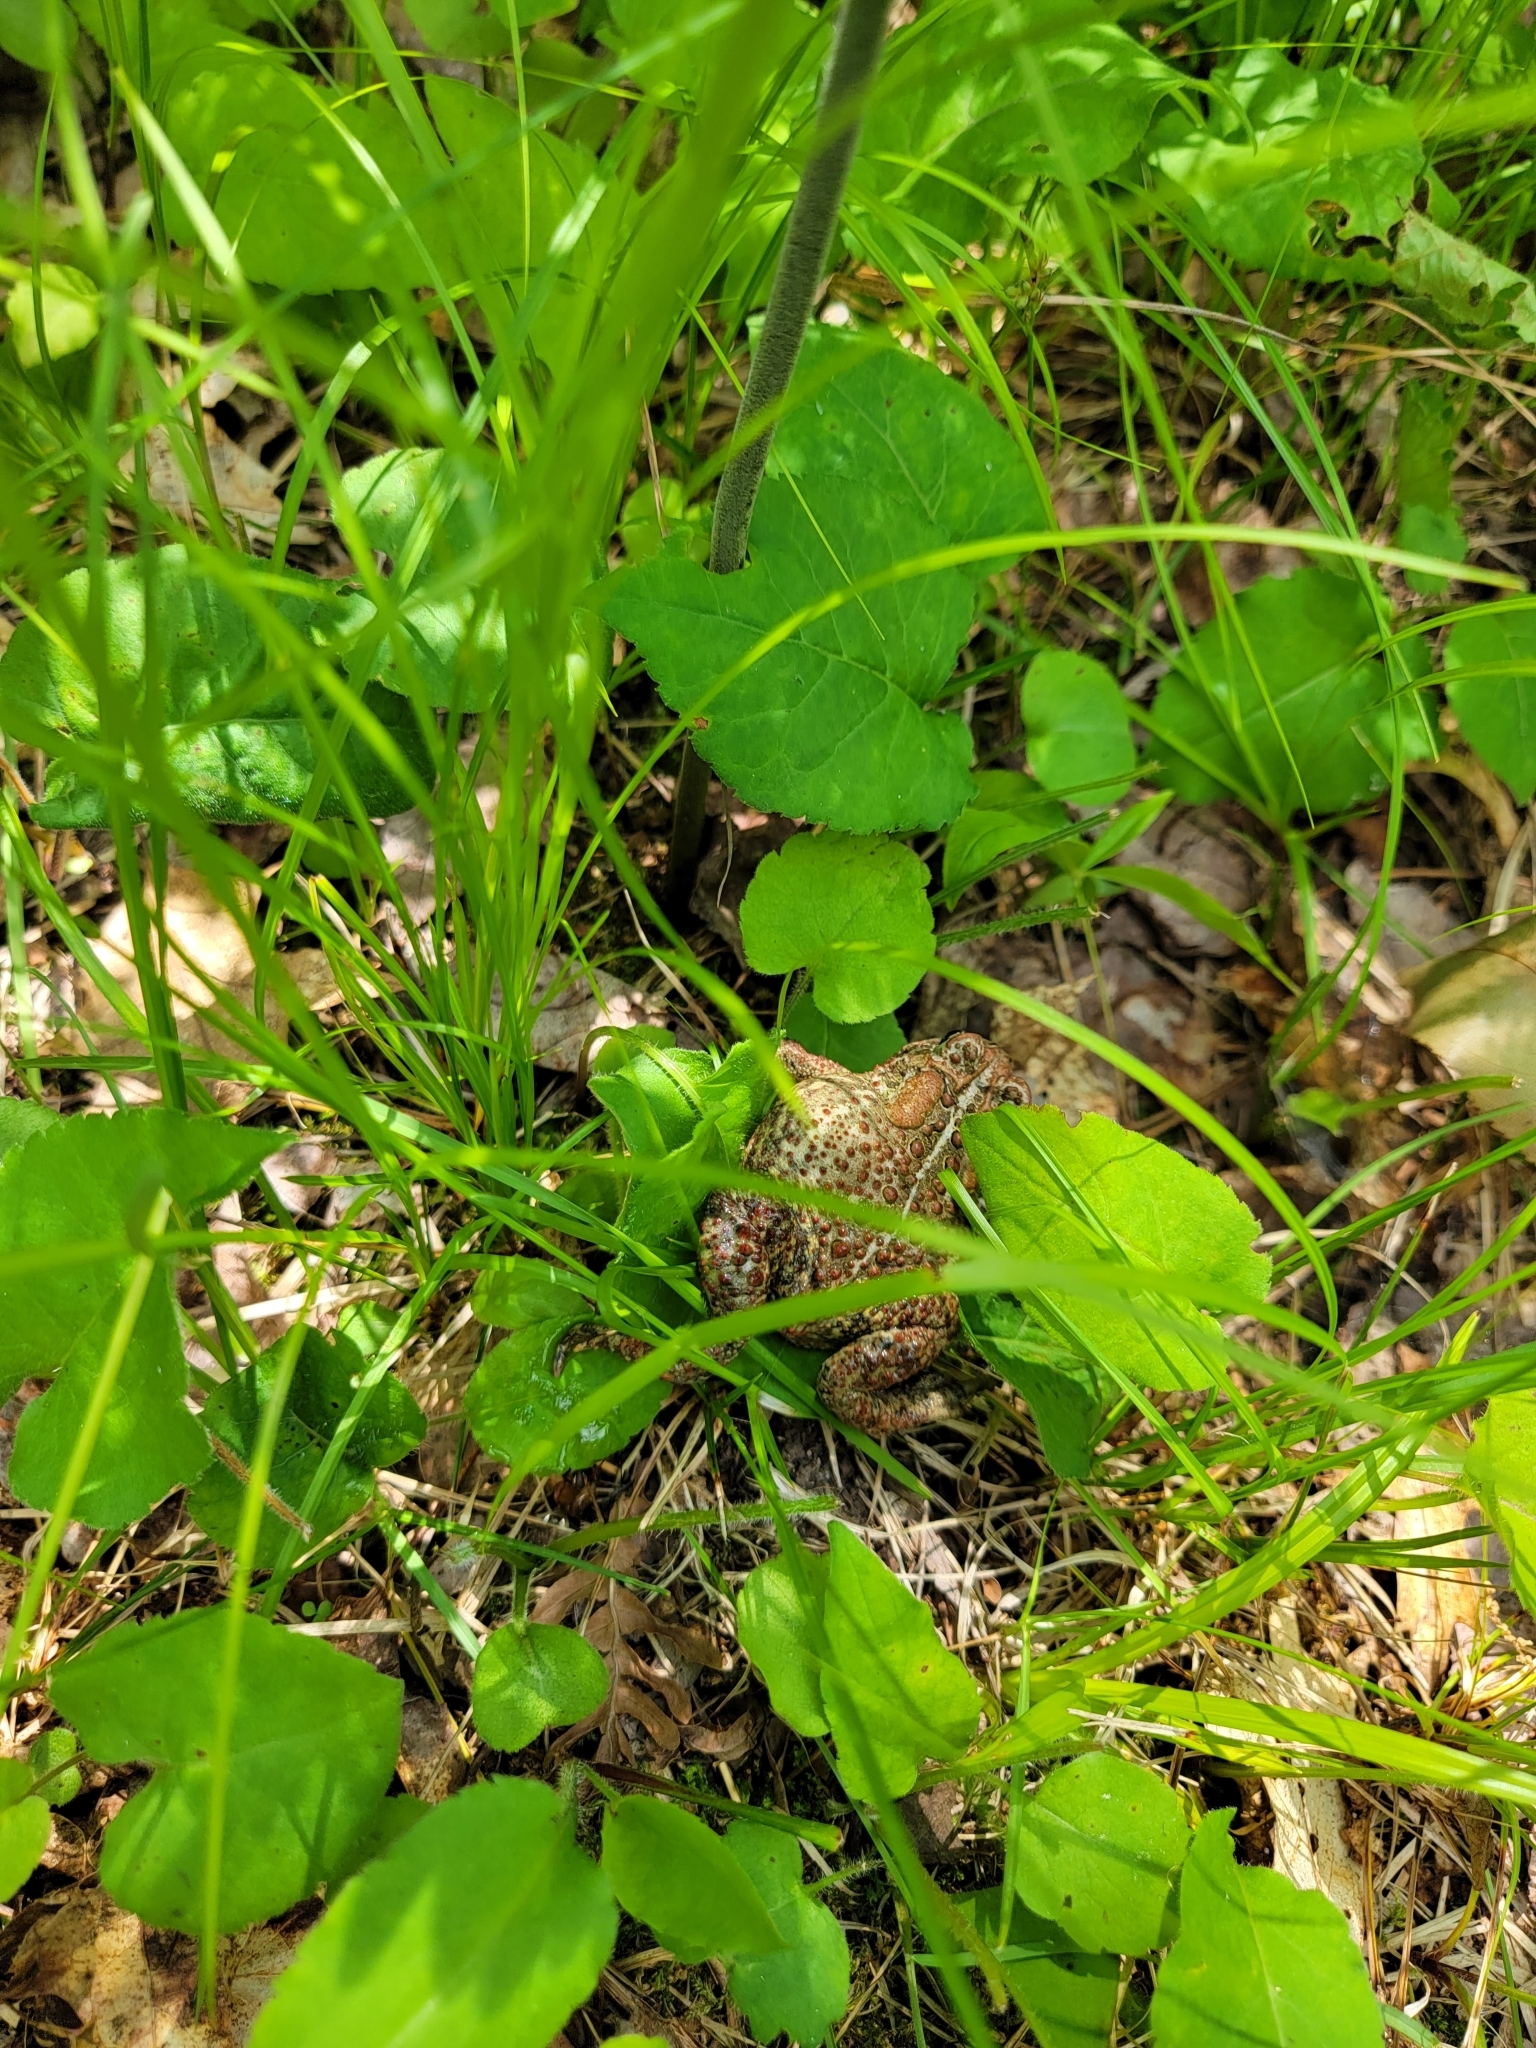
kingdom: Animalia
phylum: Chordata
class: Amphibia
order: Anura
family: Bufonidae
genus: Anaxyrus
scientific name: Anaxyrus americanus
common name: American toad
